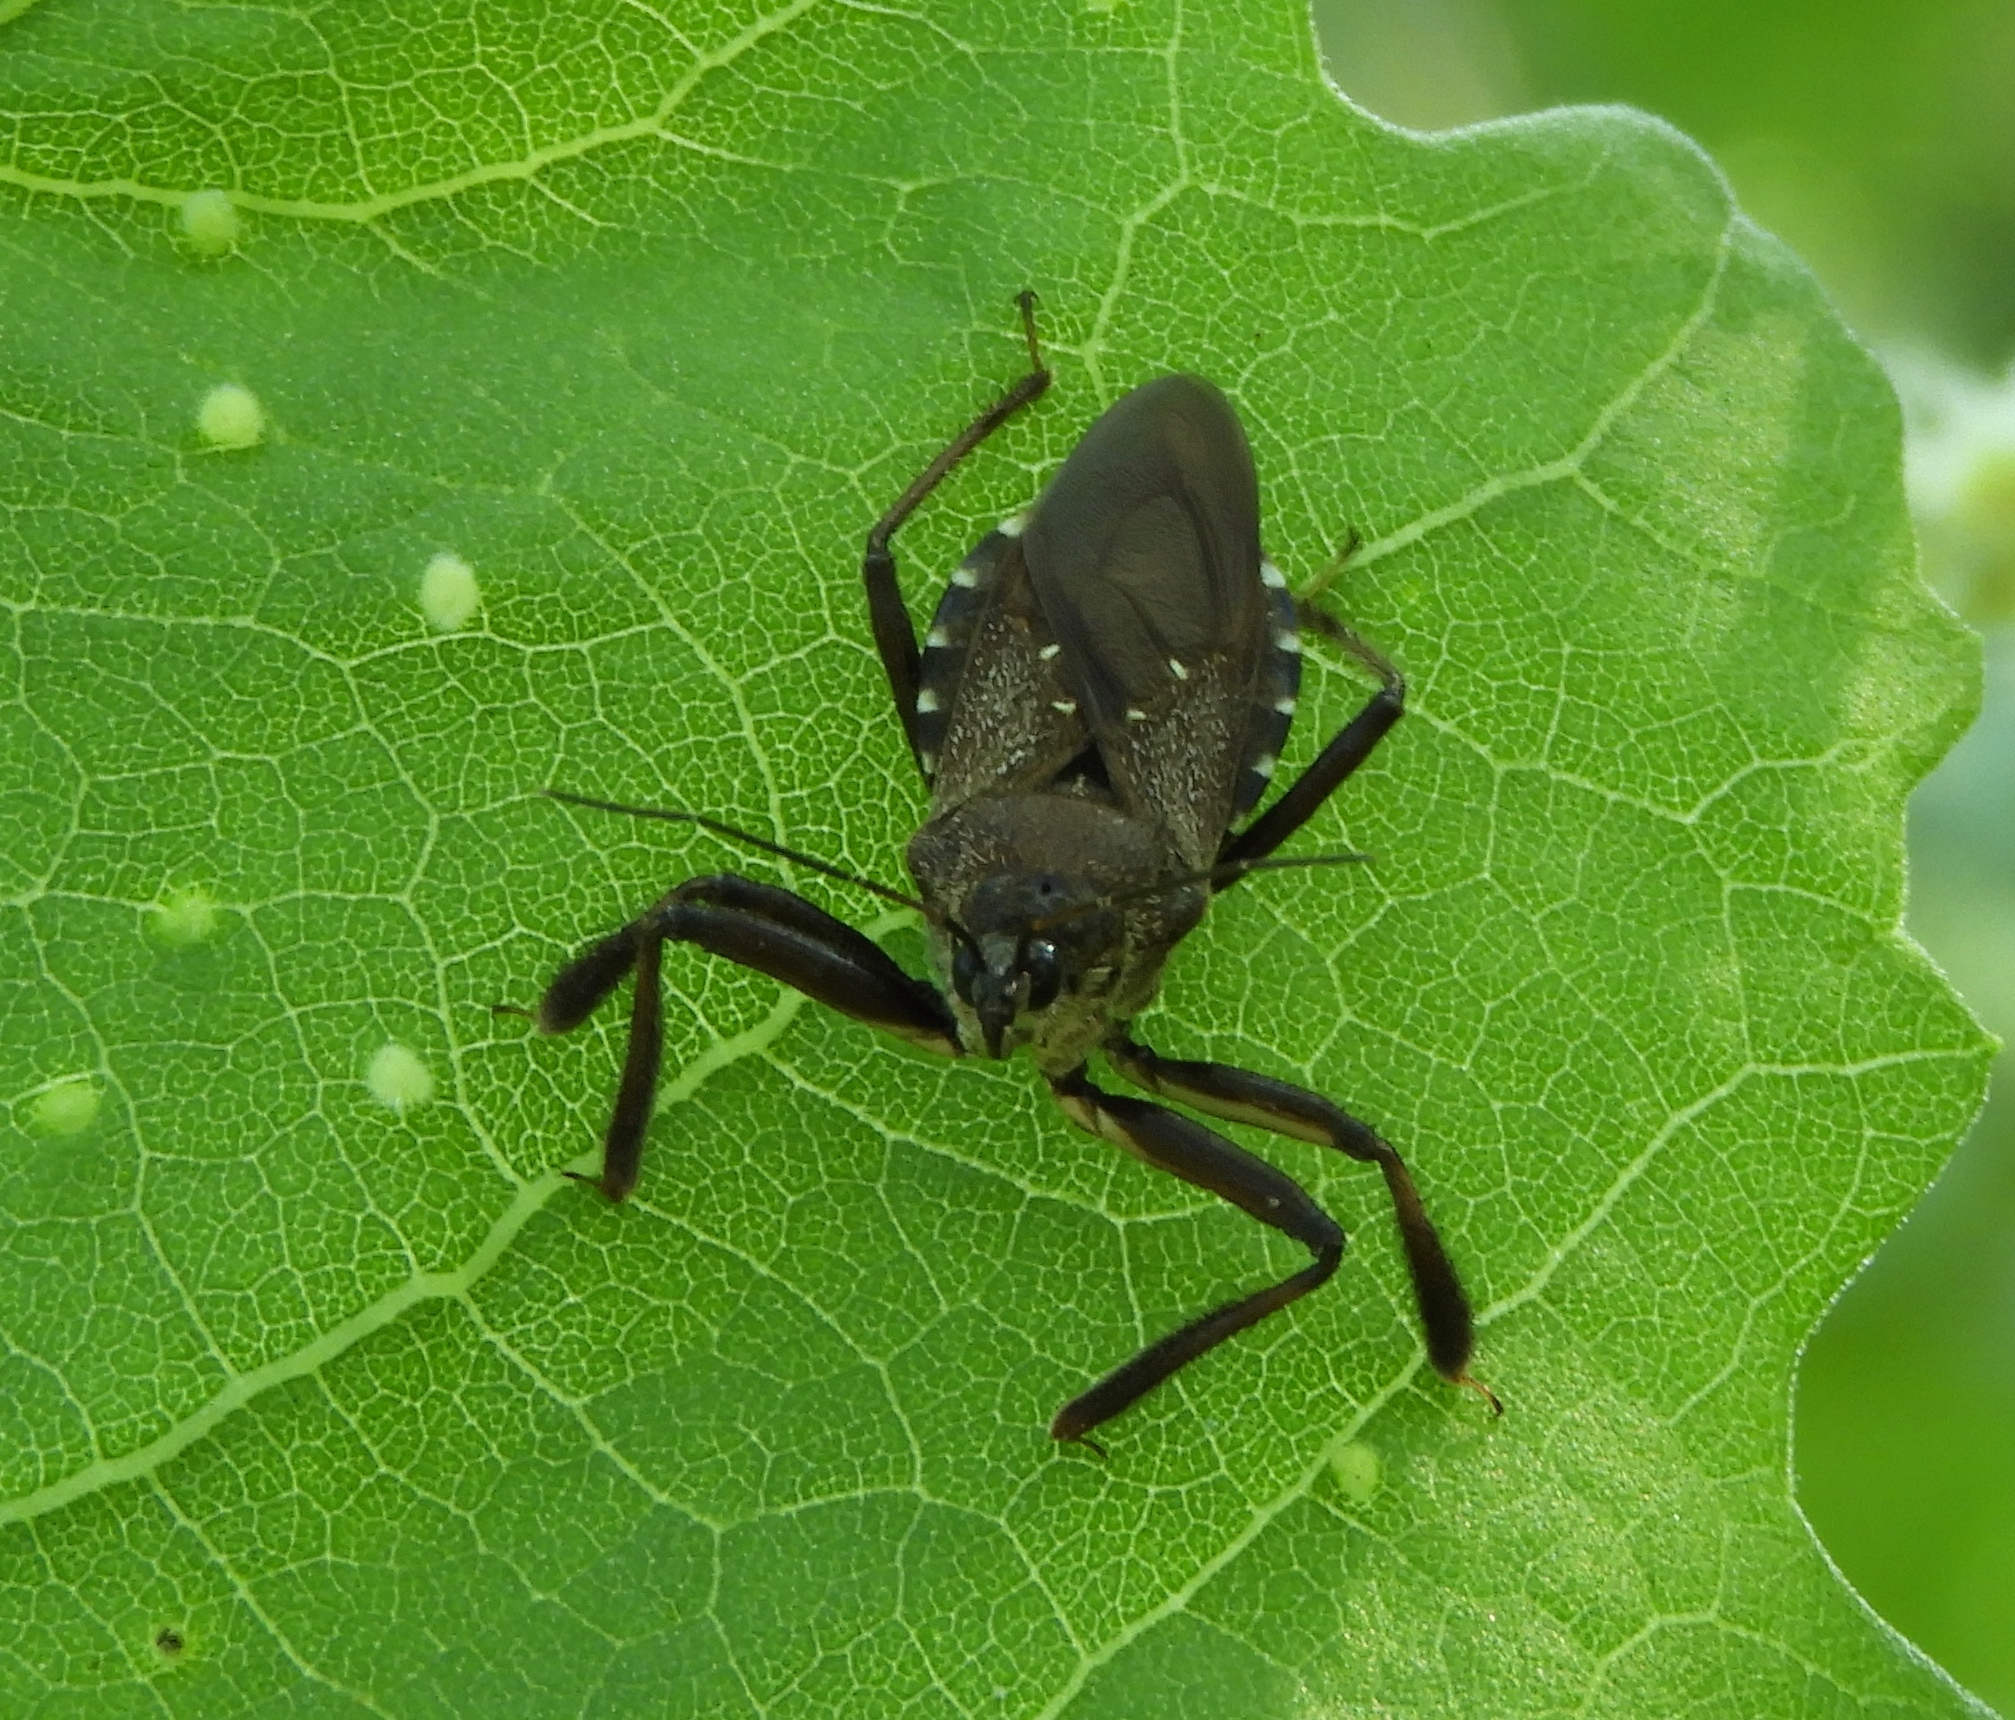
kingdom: Animalia
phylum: Arthropoda
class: Insecta
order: Hemiptera
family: Reduviidae
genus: Apiomerus
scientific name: Apiomerus longispinis
